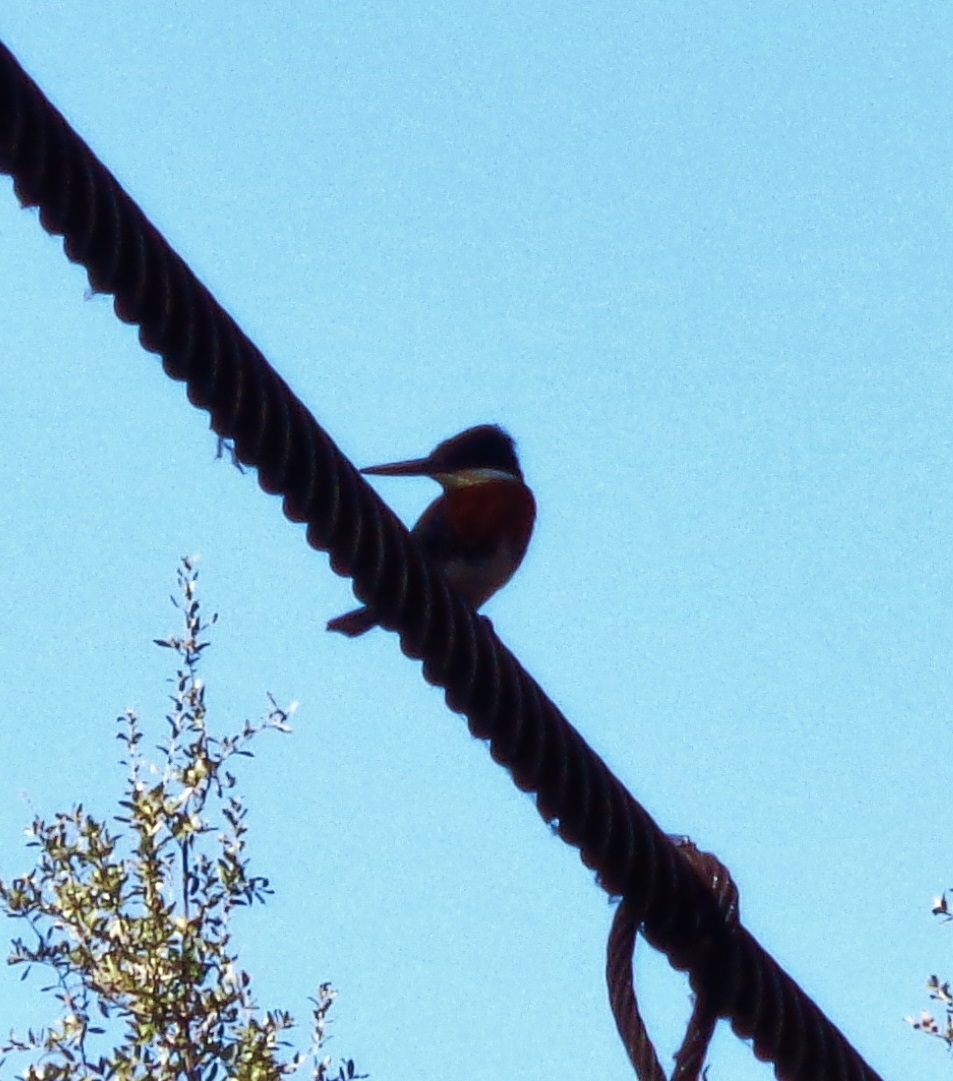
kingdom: Animalia
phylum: Chordata
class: Aves
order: Coraciiformes
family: Alcedinidae
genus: Chloroceryle
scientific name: Chloroceryle americana
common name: Green kingfisher
